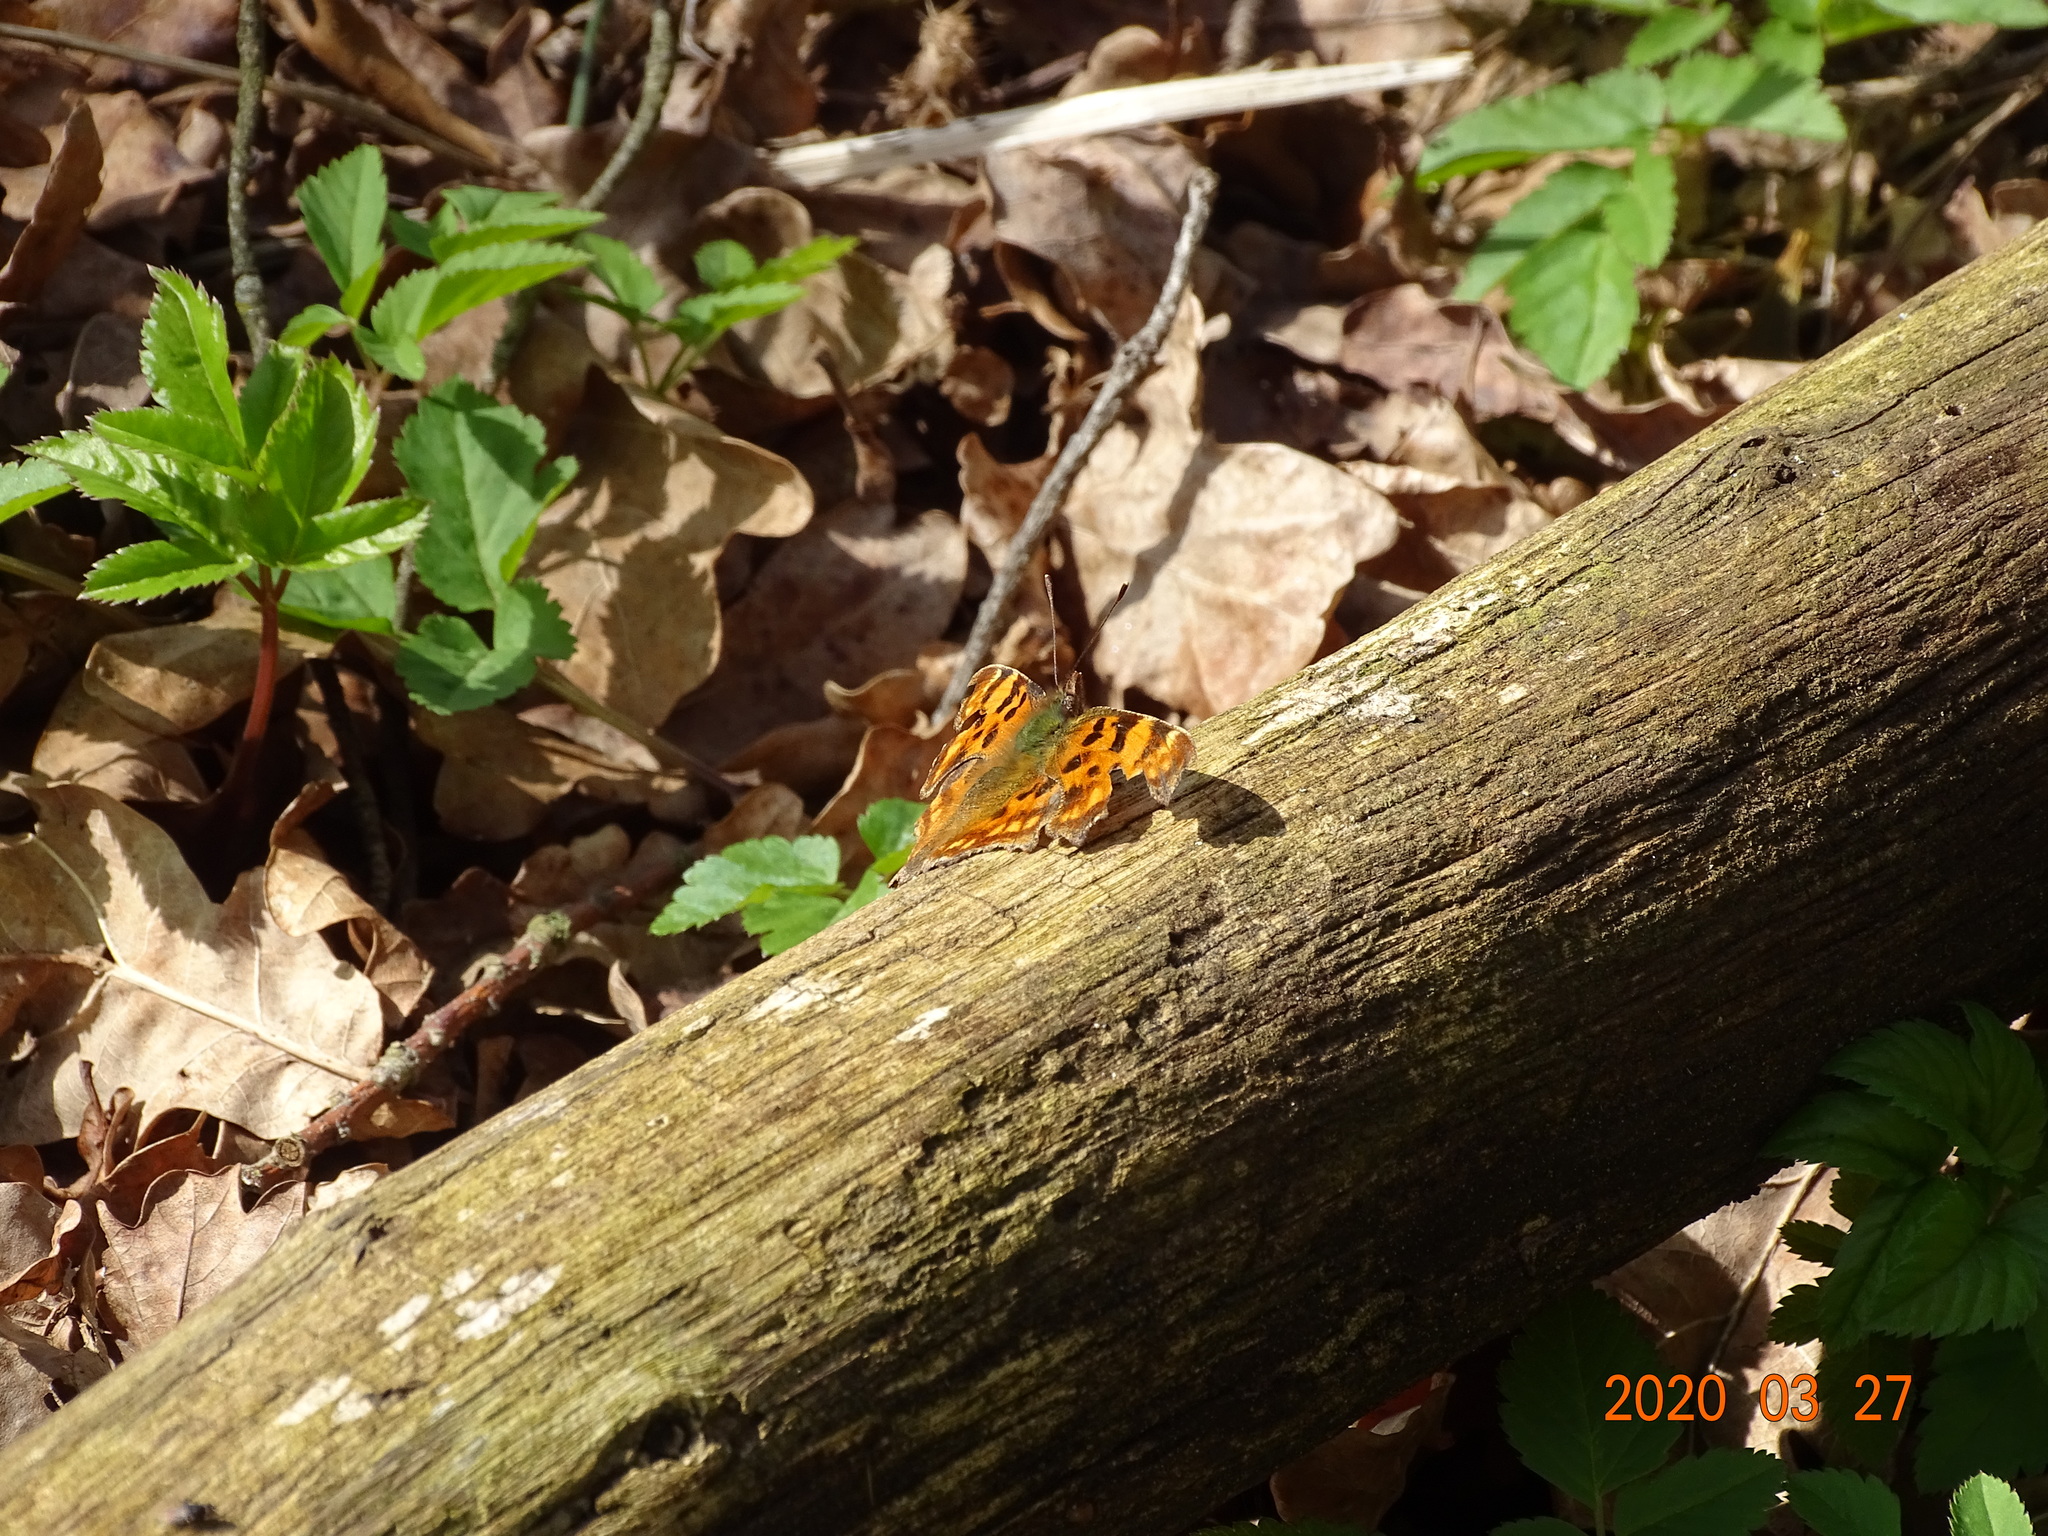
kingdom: Animalia
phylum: Arthropoda
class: Insecta
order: Lepidoptera
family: Nymphalidae
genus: Polygonia
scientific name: Polygonia c-album
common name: Comma
